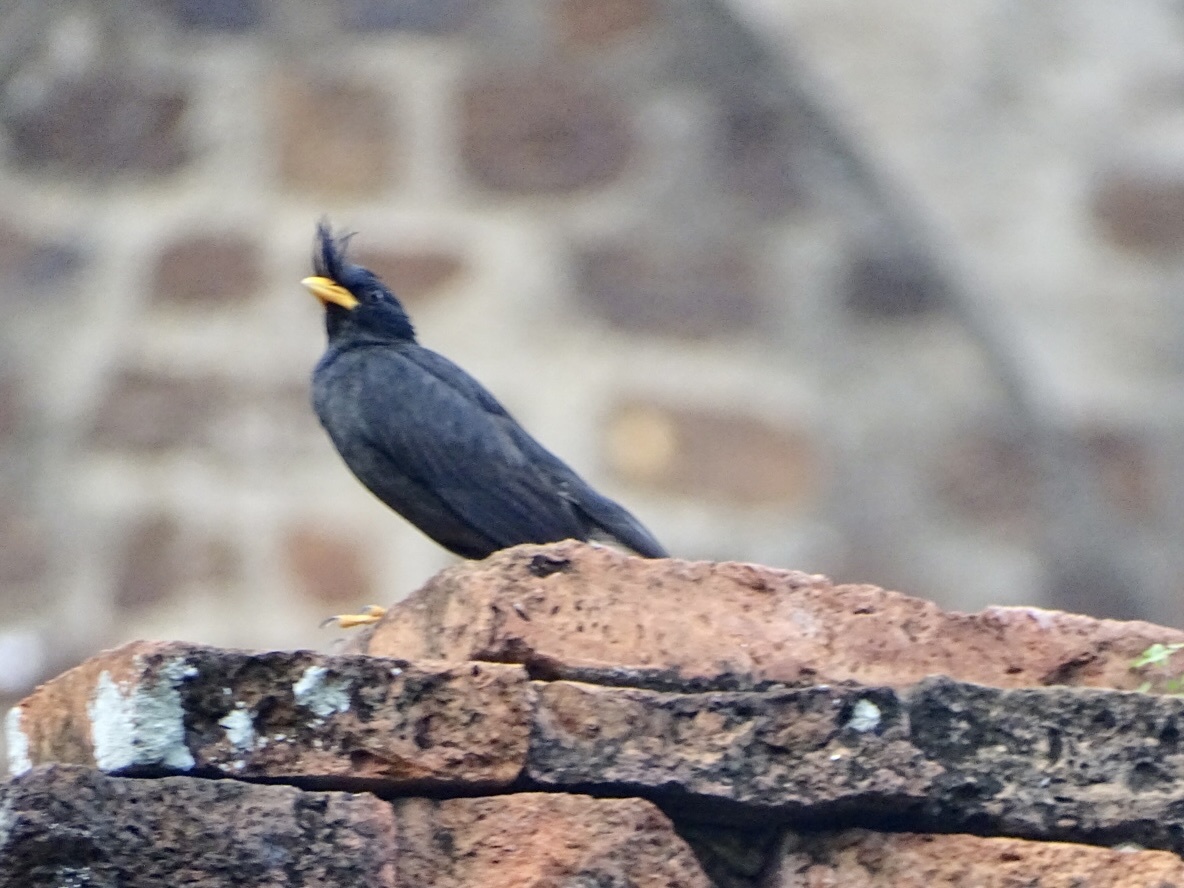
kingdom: Animalia
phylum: Chordata
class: Aves
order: Passeriformes
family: Sturnidae
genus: Acridotheres
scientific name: Acridotheres grandis
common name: Great myna
